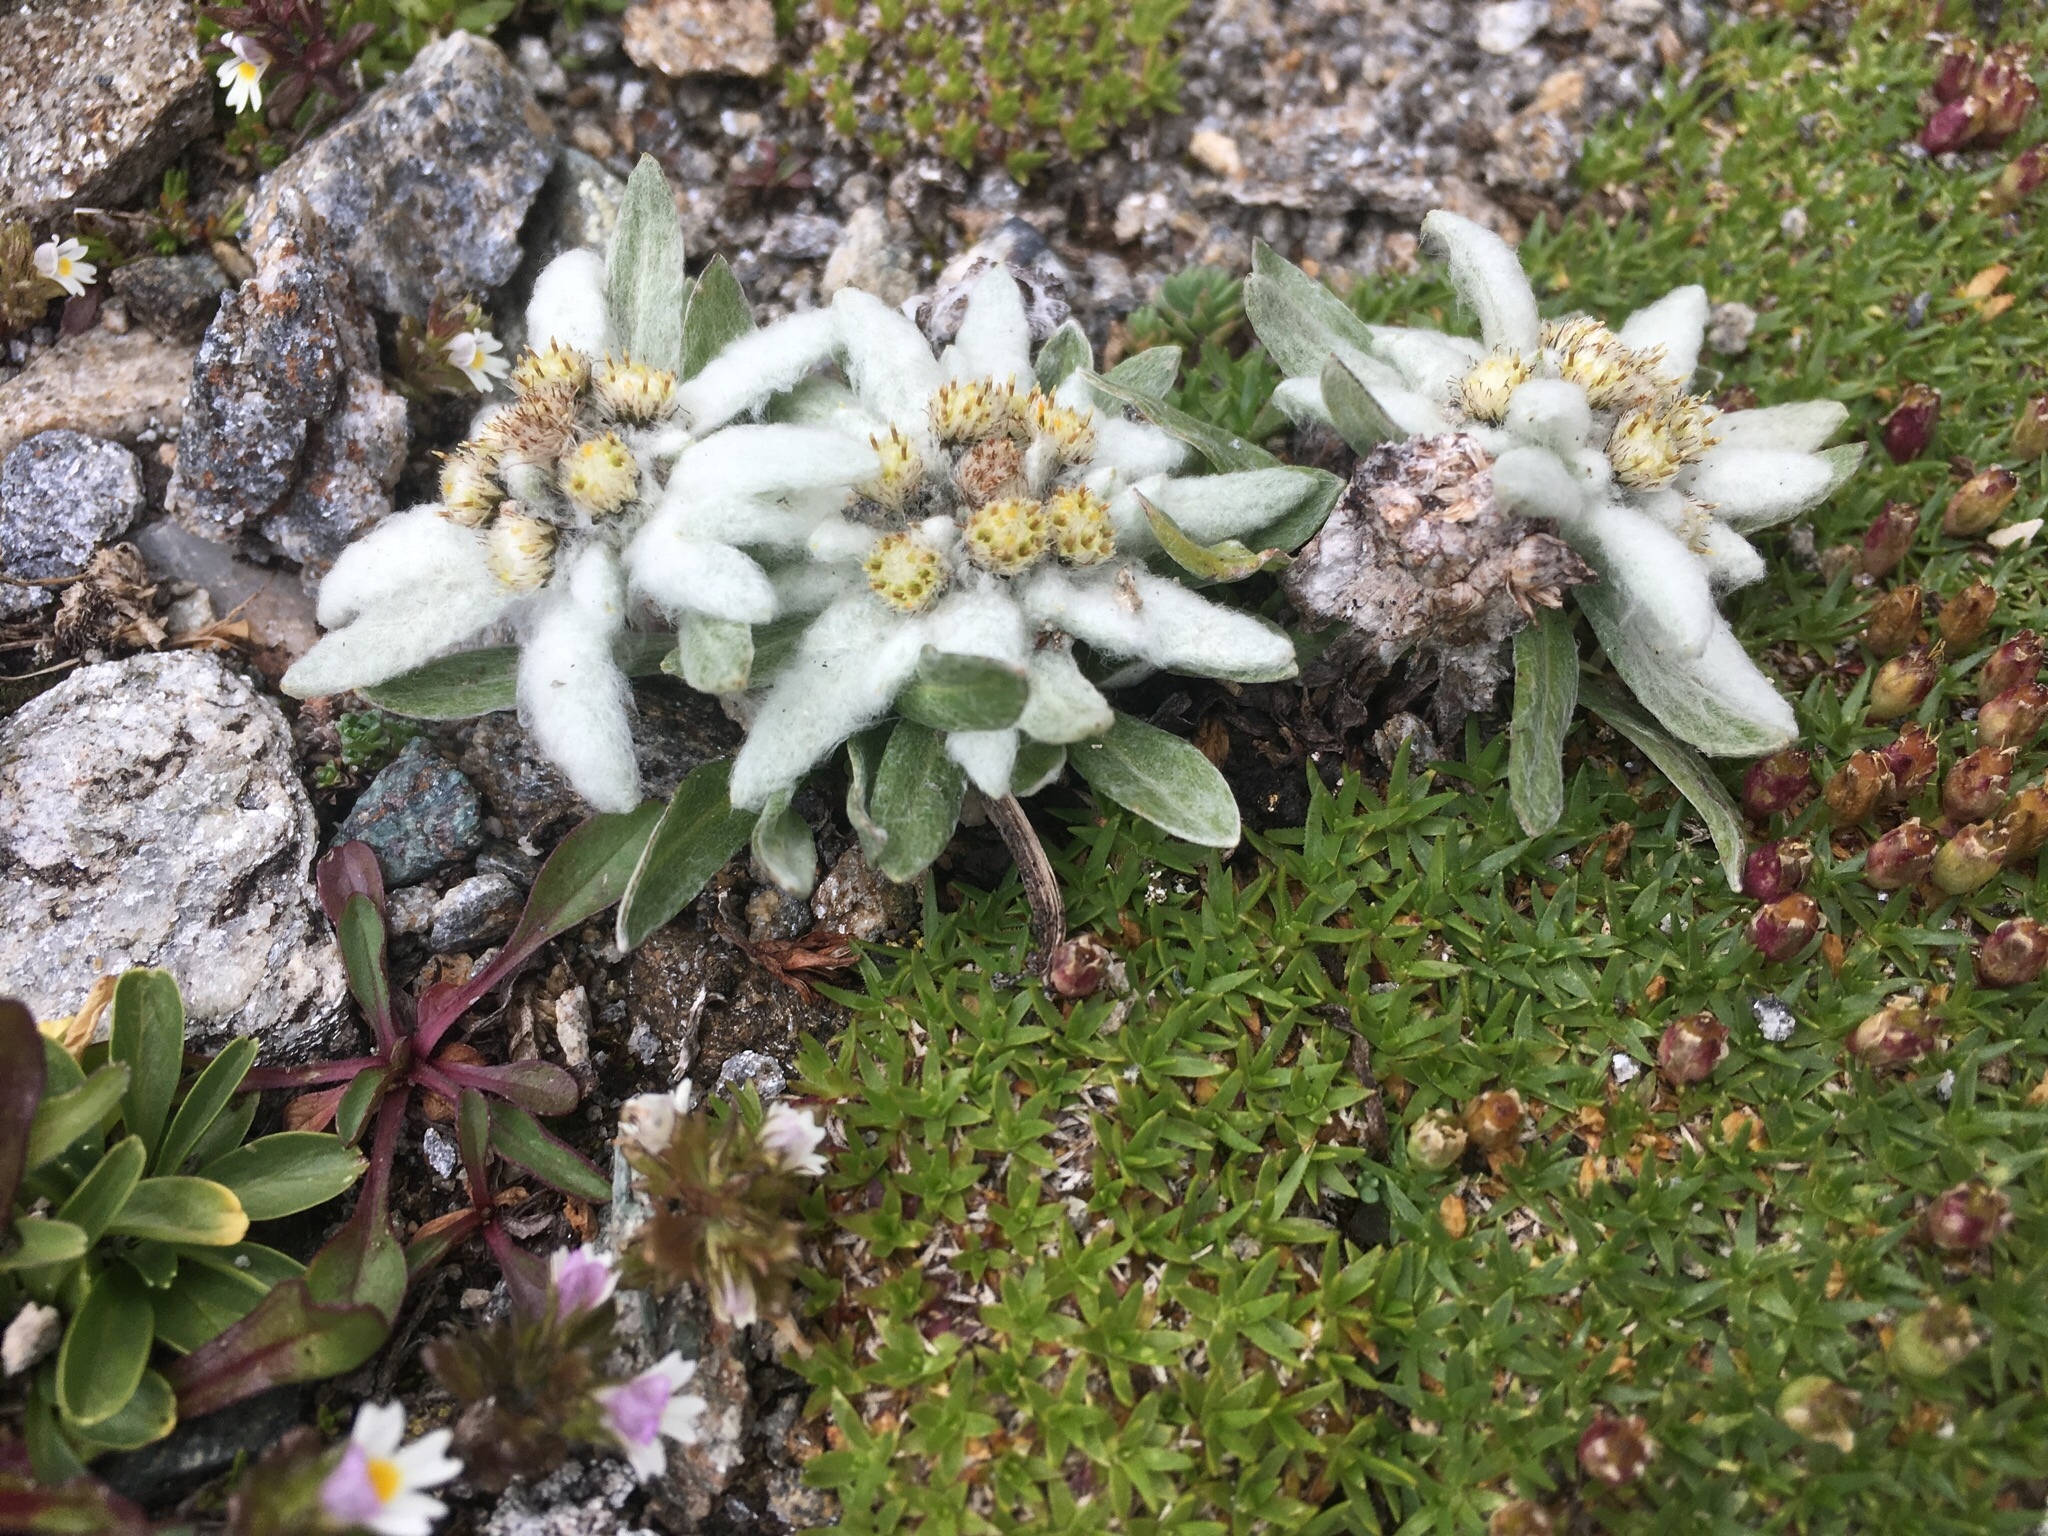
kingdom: Plantae
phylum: Tracheophyta
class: Magnoliopsida
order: Asterales
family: Asteraceae
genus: Leontopodium
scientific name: Leontopodium nivale
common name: Edelweiss
